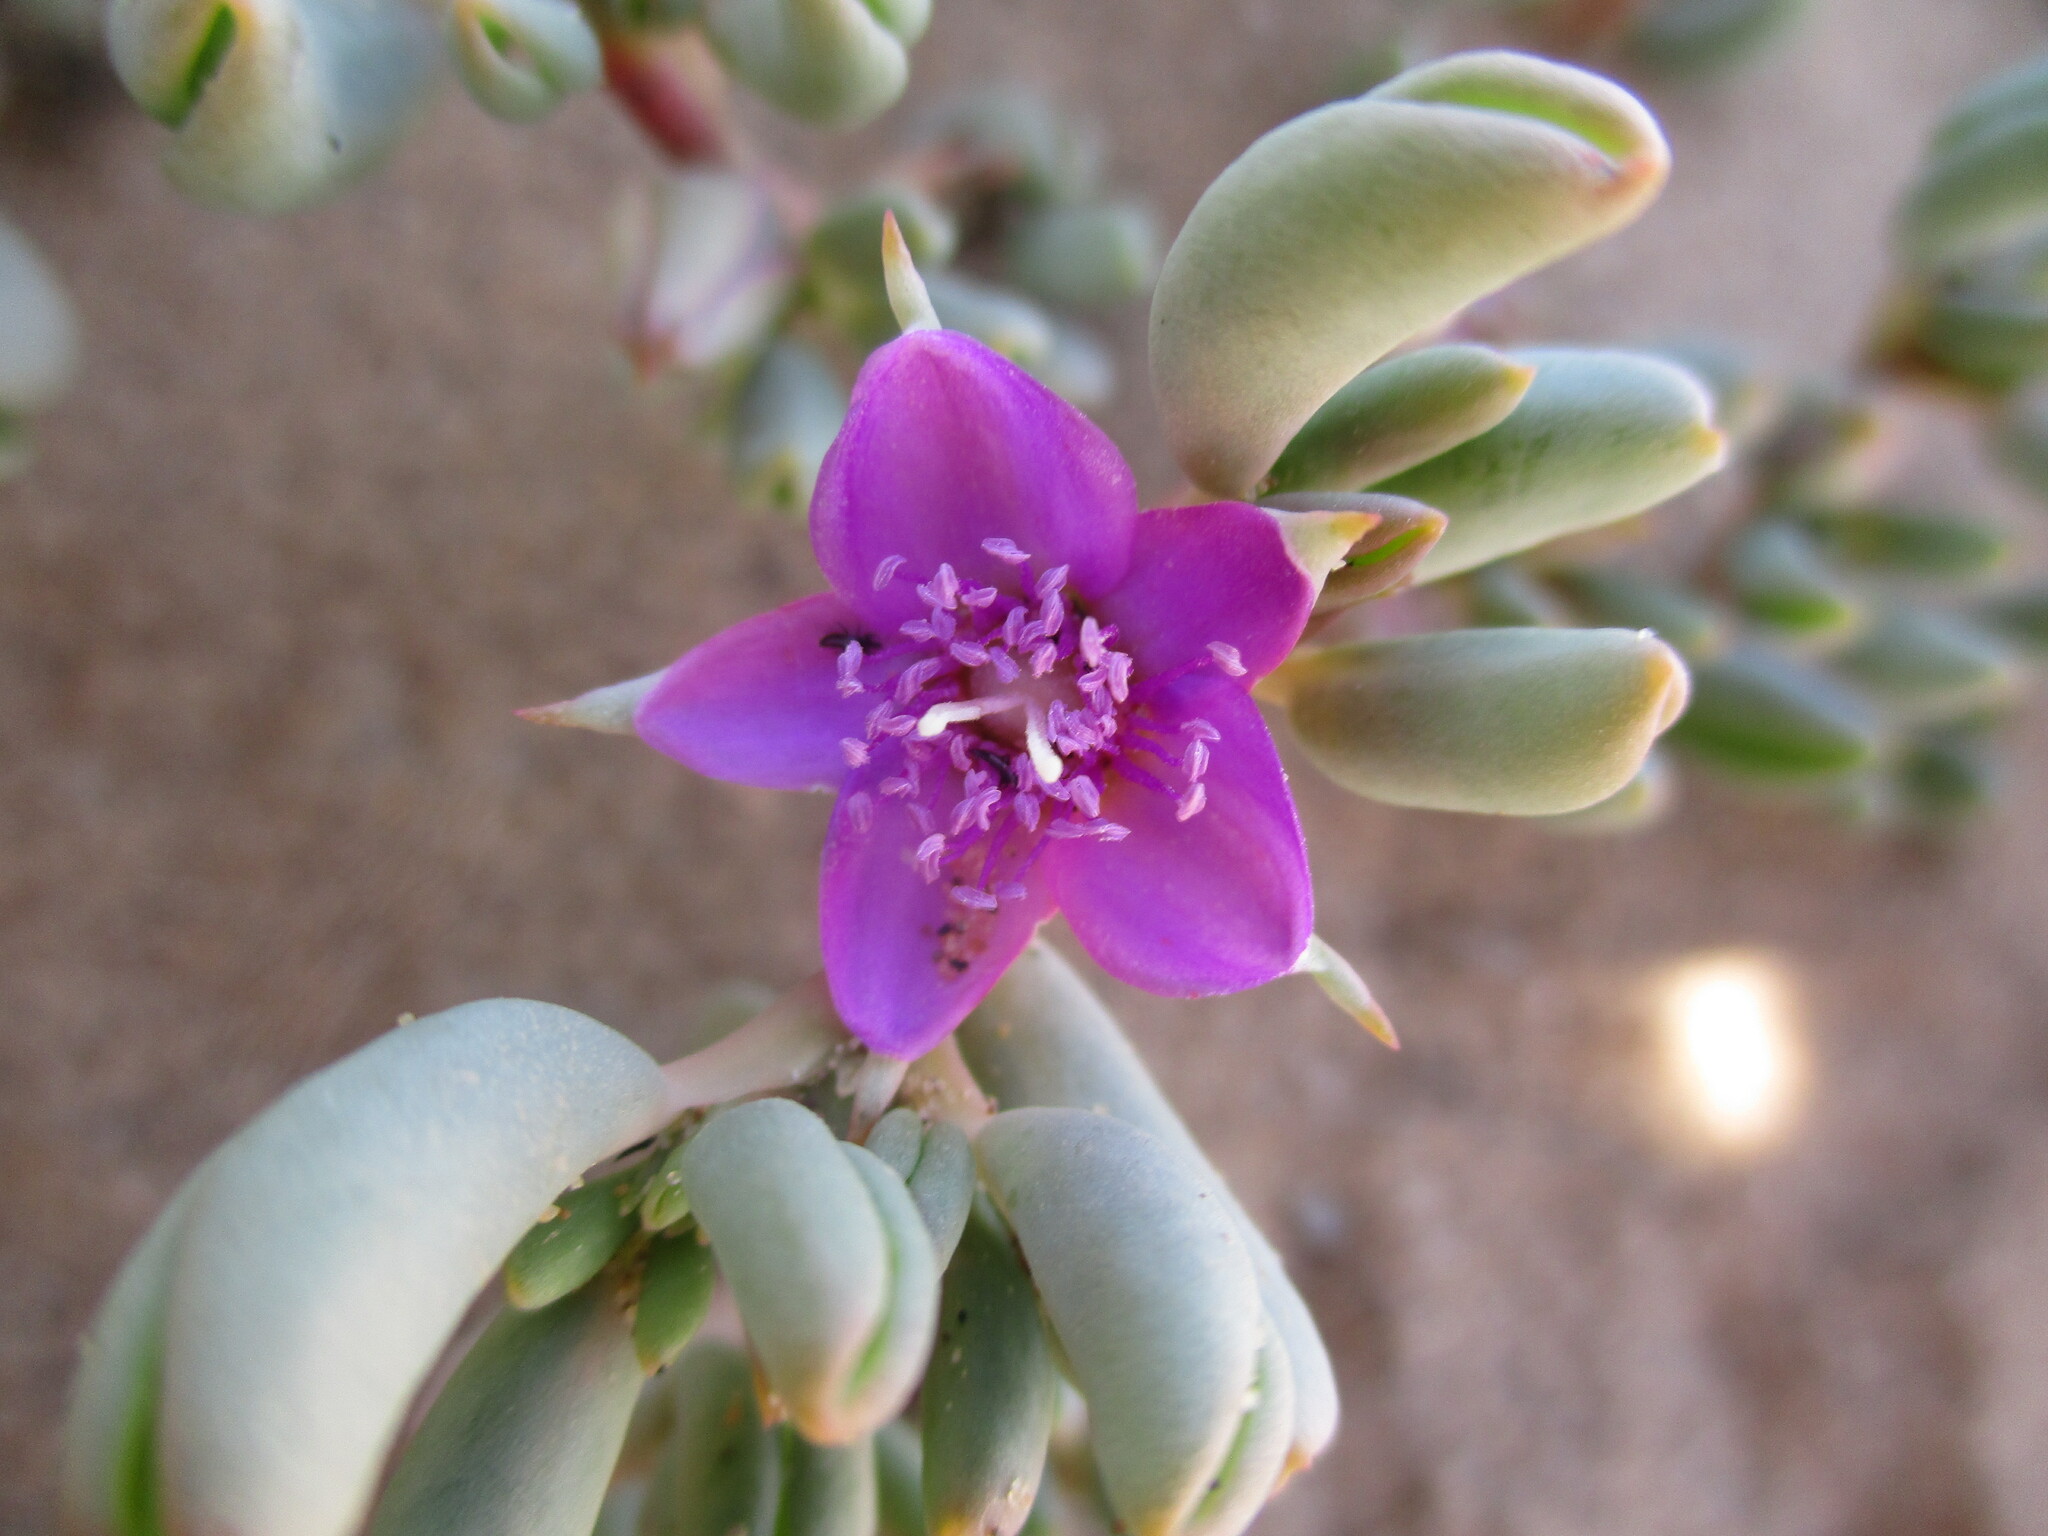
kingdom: Plantae
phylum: Tracheophyta
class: Magnoliopsida
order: Caryophyllales
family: Aizoaceae
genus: Sesuvium
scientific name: Sesuvium sesuvioides
